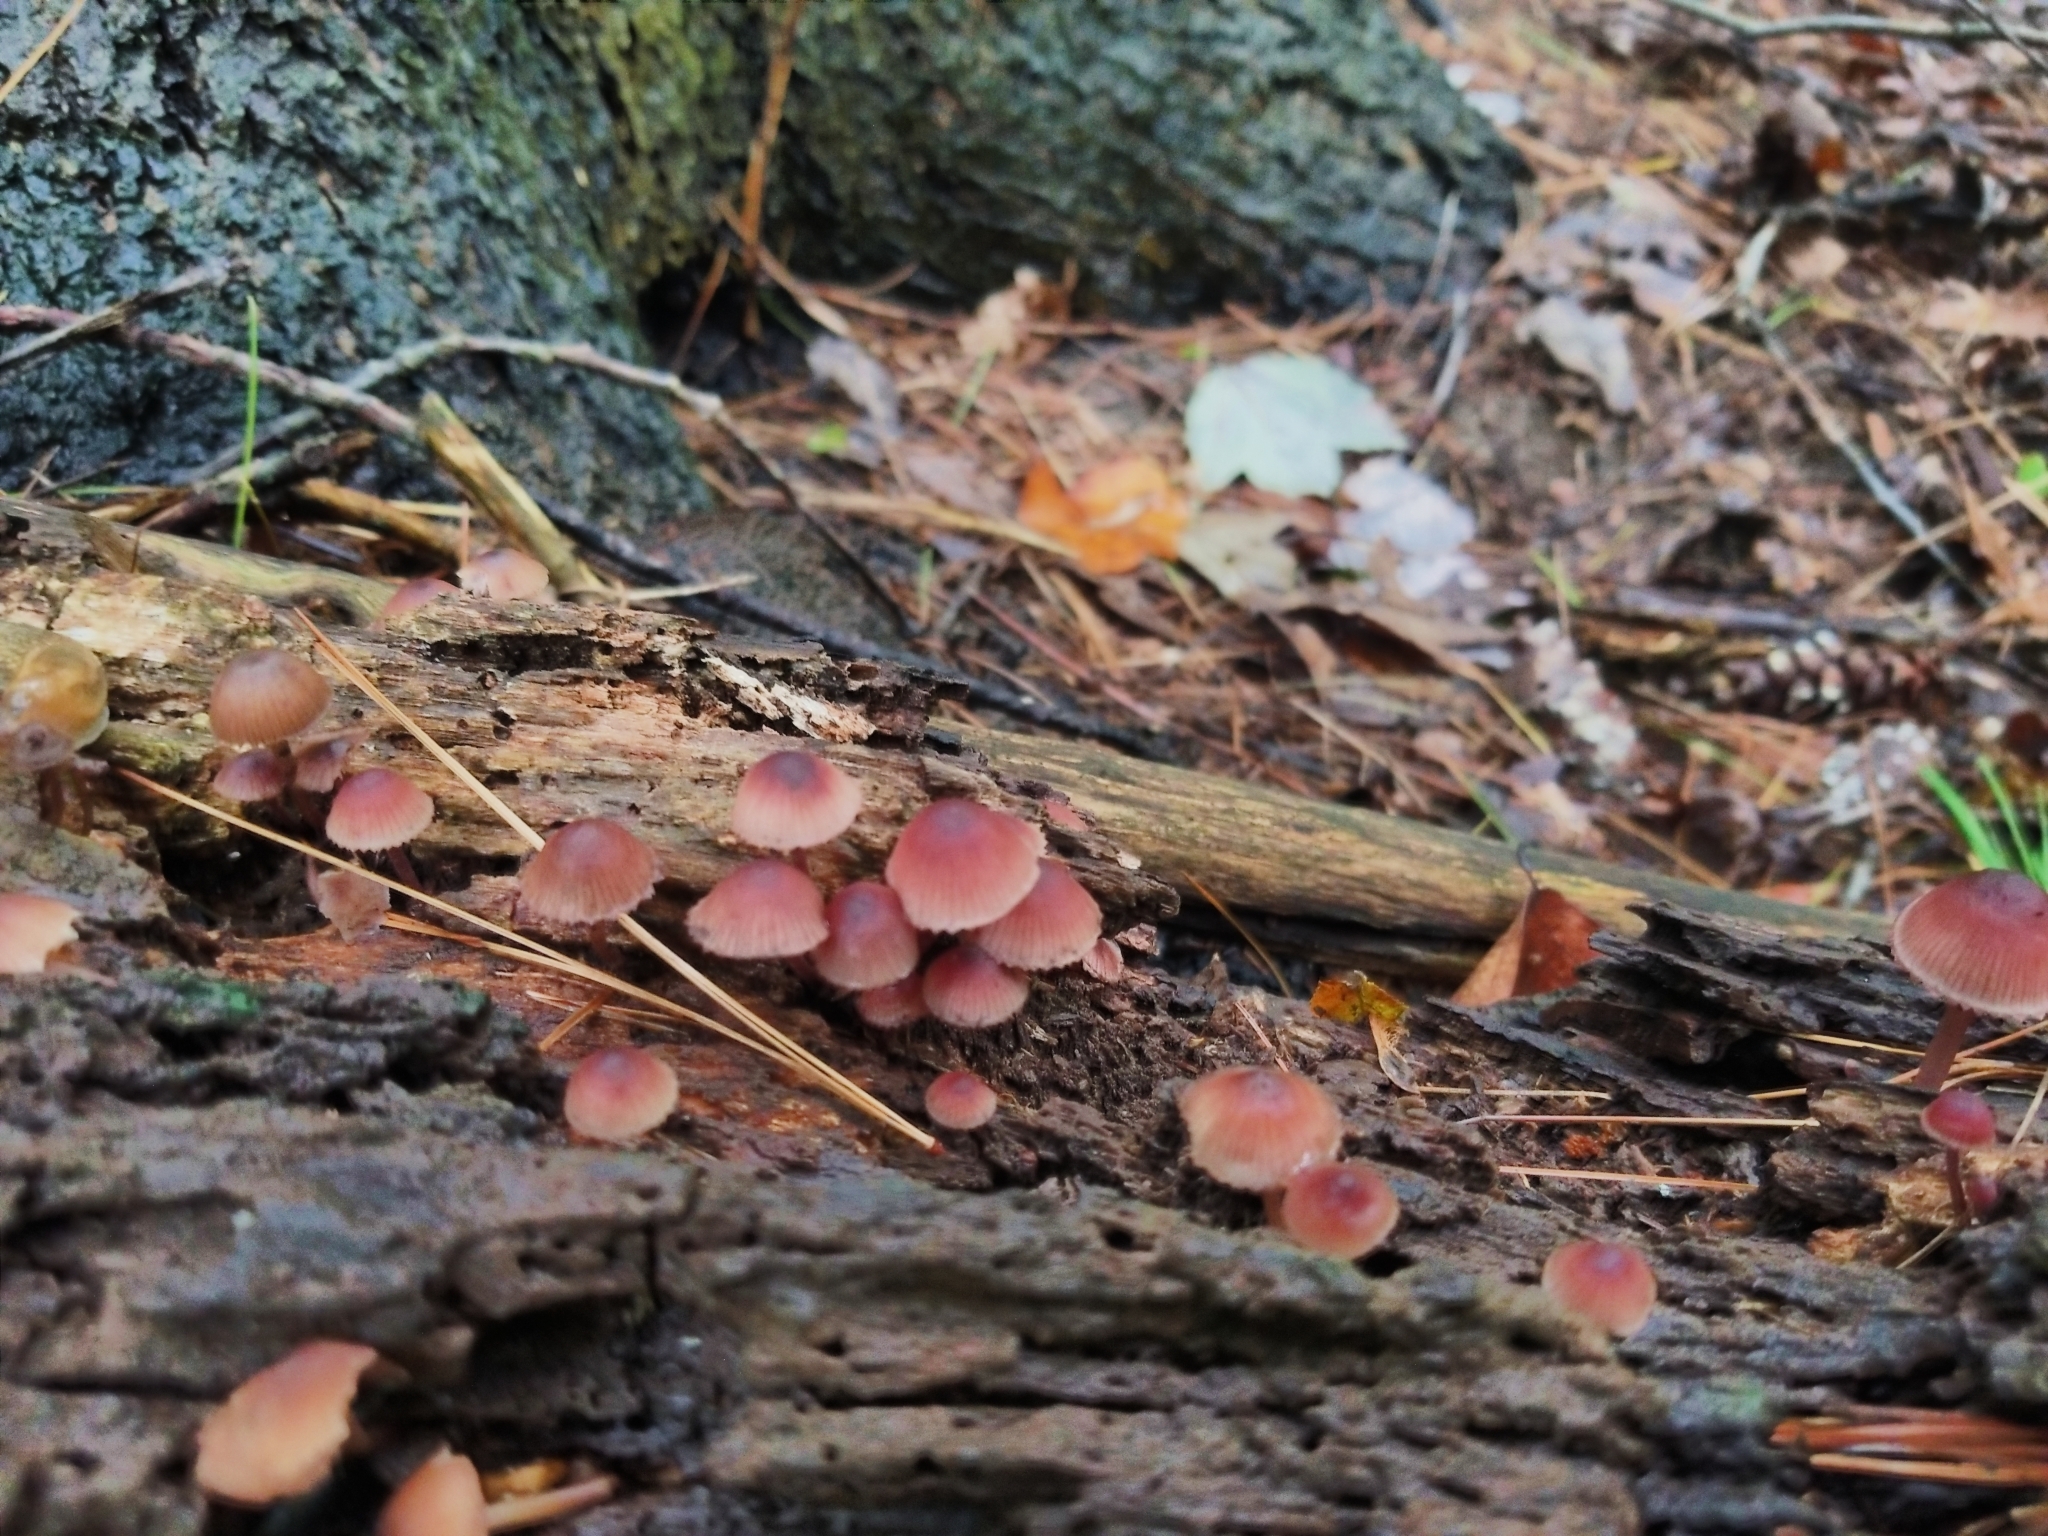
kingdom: Fungi
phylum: Basidiomycota
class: Agaricomycetes
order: Agaricales
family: Mycenaceae
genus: Mycena
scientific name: Mycena haematopus
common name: Burgundydrop bonnet
